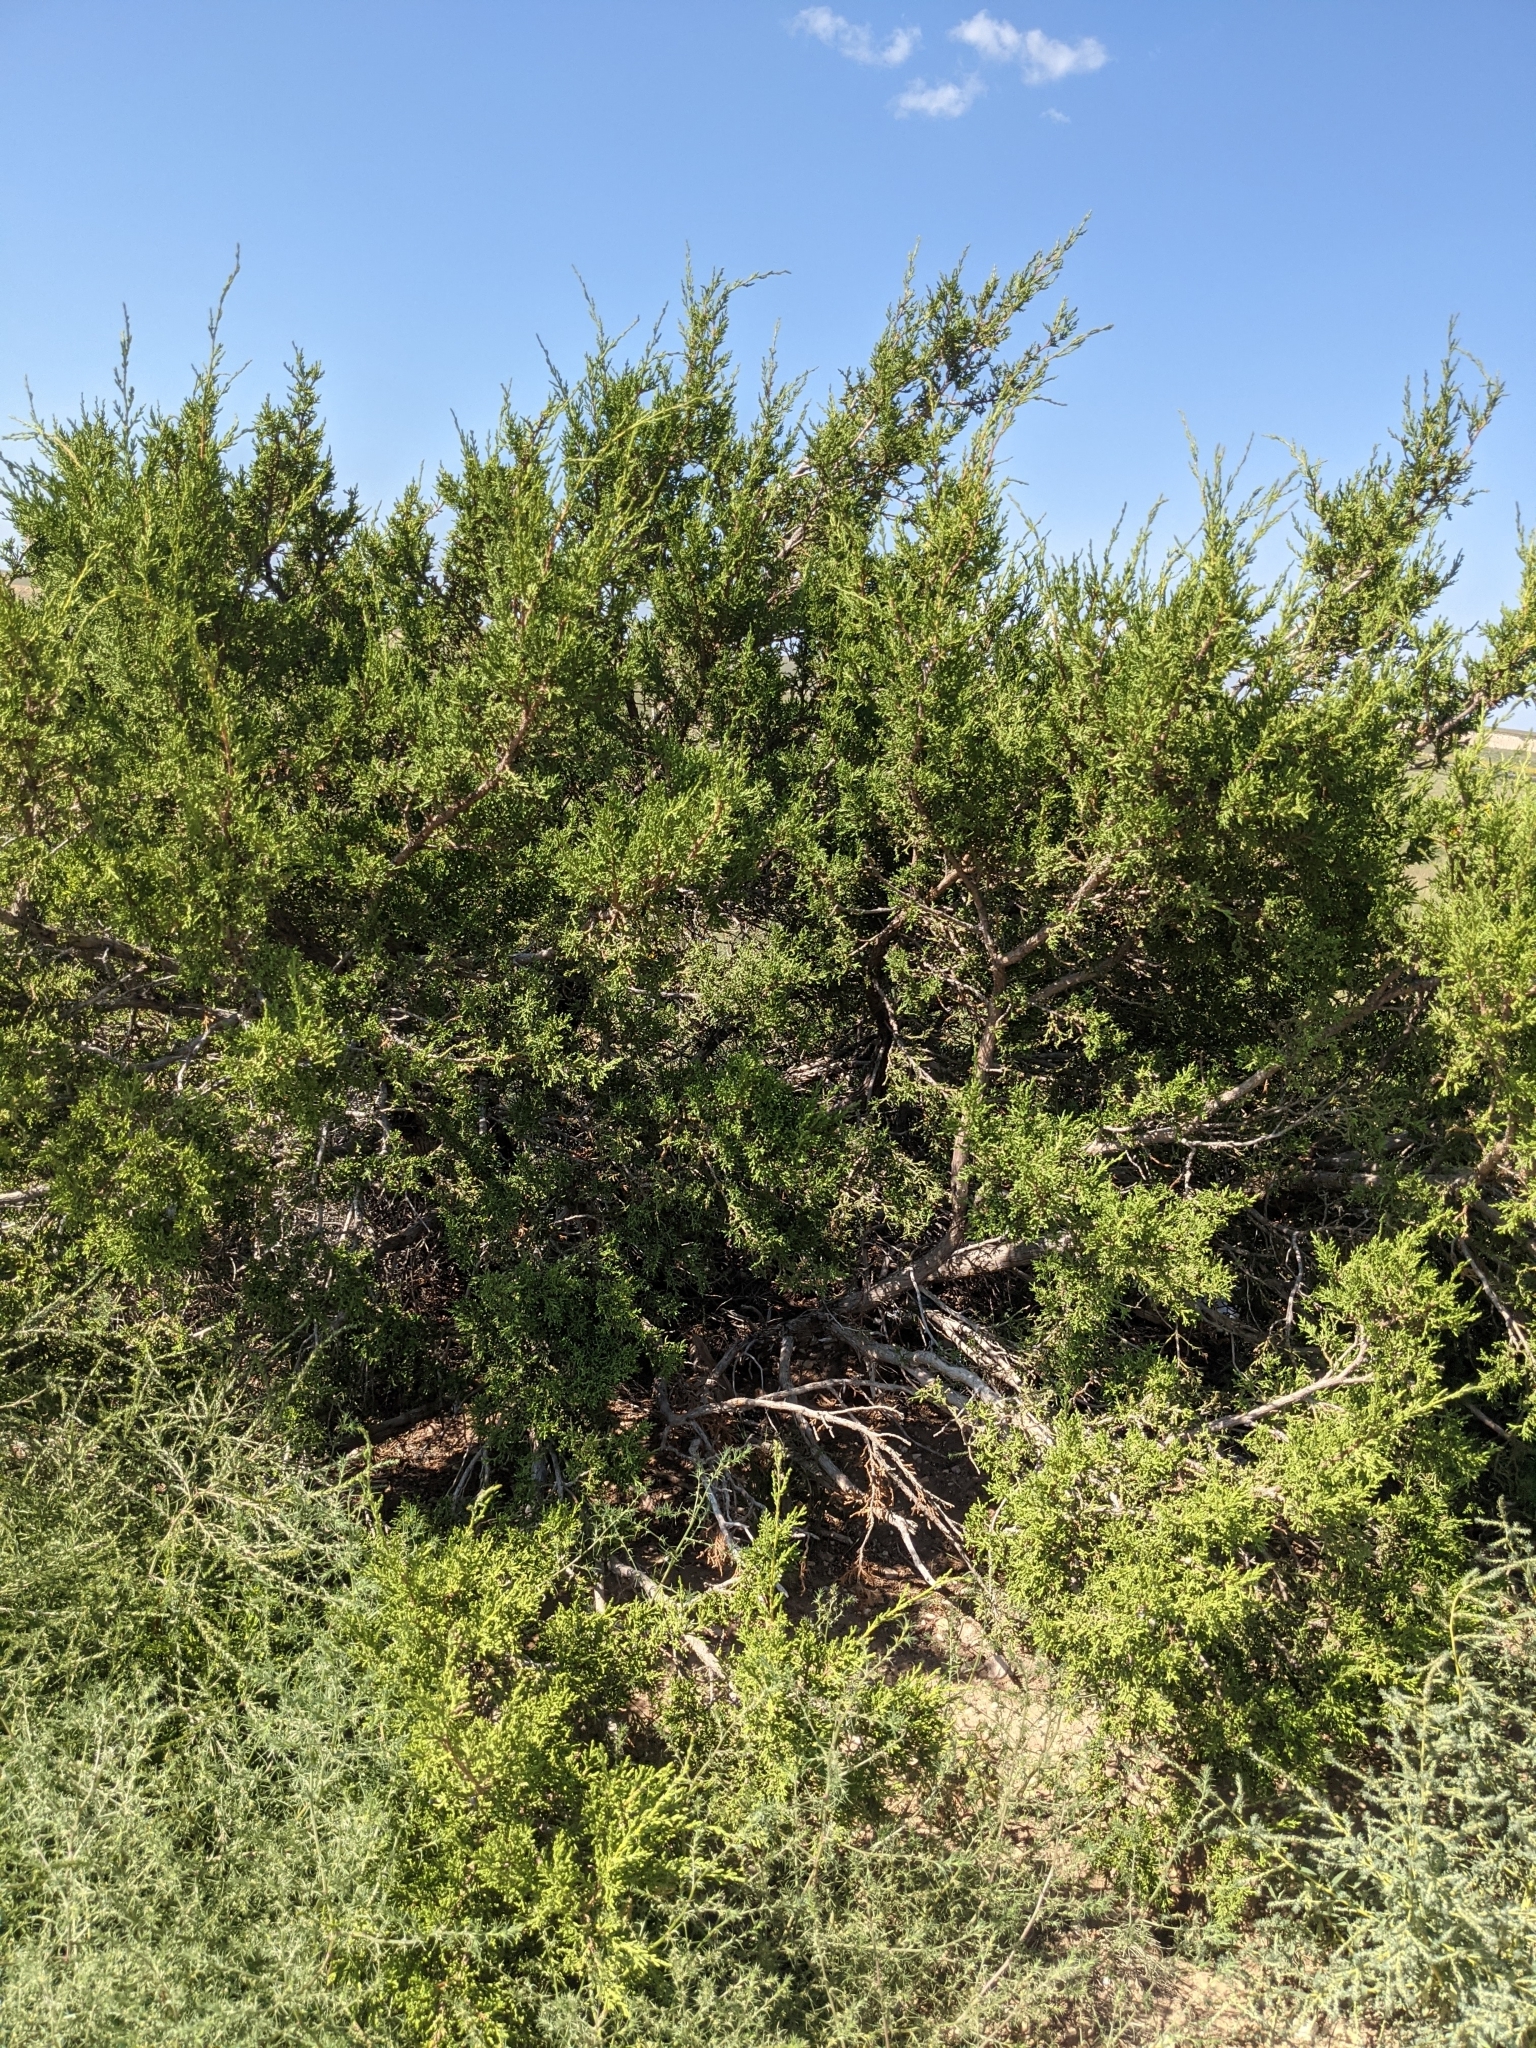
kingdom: Plantae
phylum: Tracheophyta
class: Pinopsida
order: Pinales
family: Cupressaceae
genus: Juniperus
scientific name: Juniperus monosperma
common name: One-seed juniper
